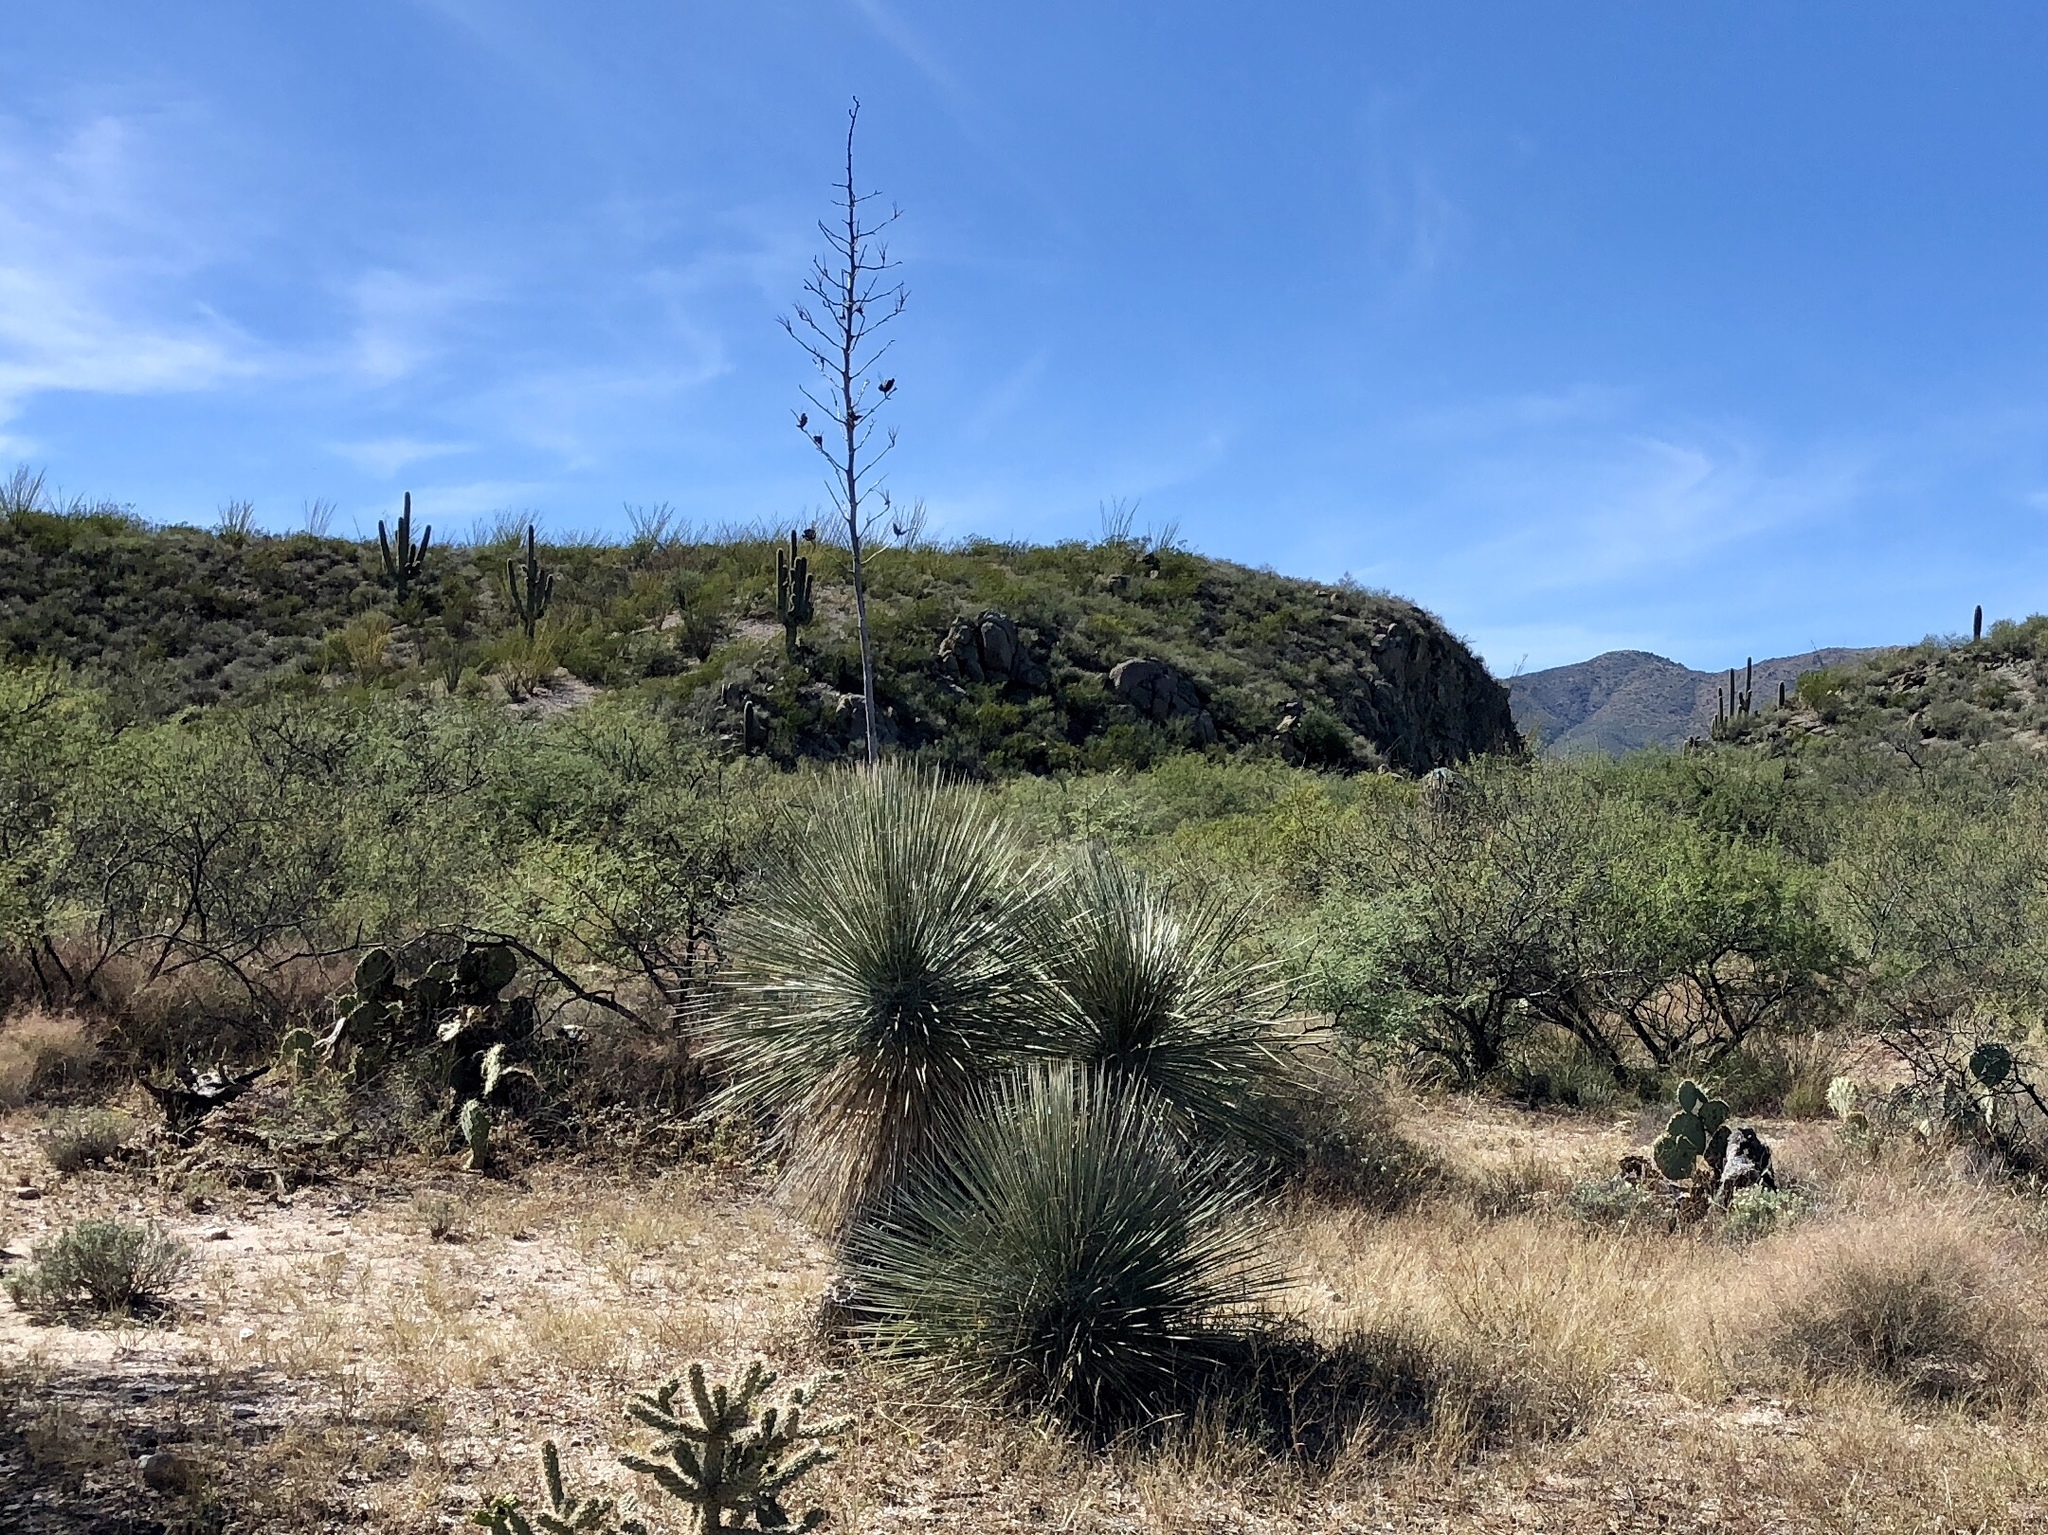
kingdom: Plantae
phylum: Tracheophyta
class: Liliopsida
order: Asparagales
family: Asparagaceae
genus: Yucca
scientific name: Yucca elata
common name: Palmella
